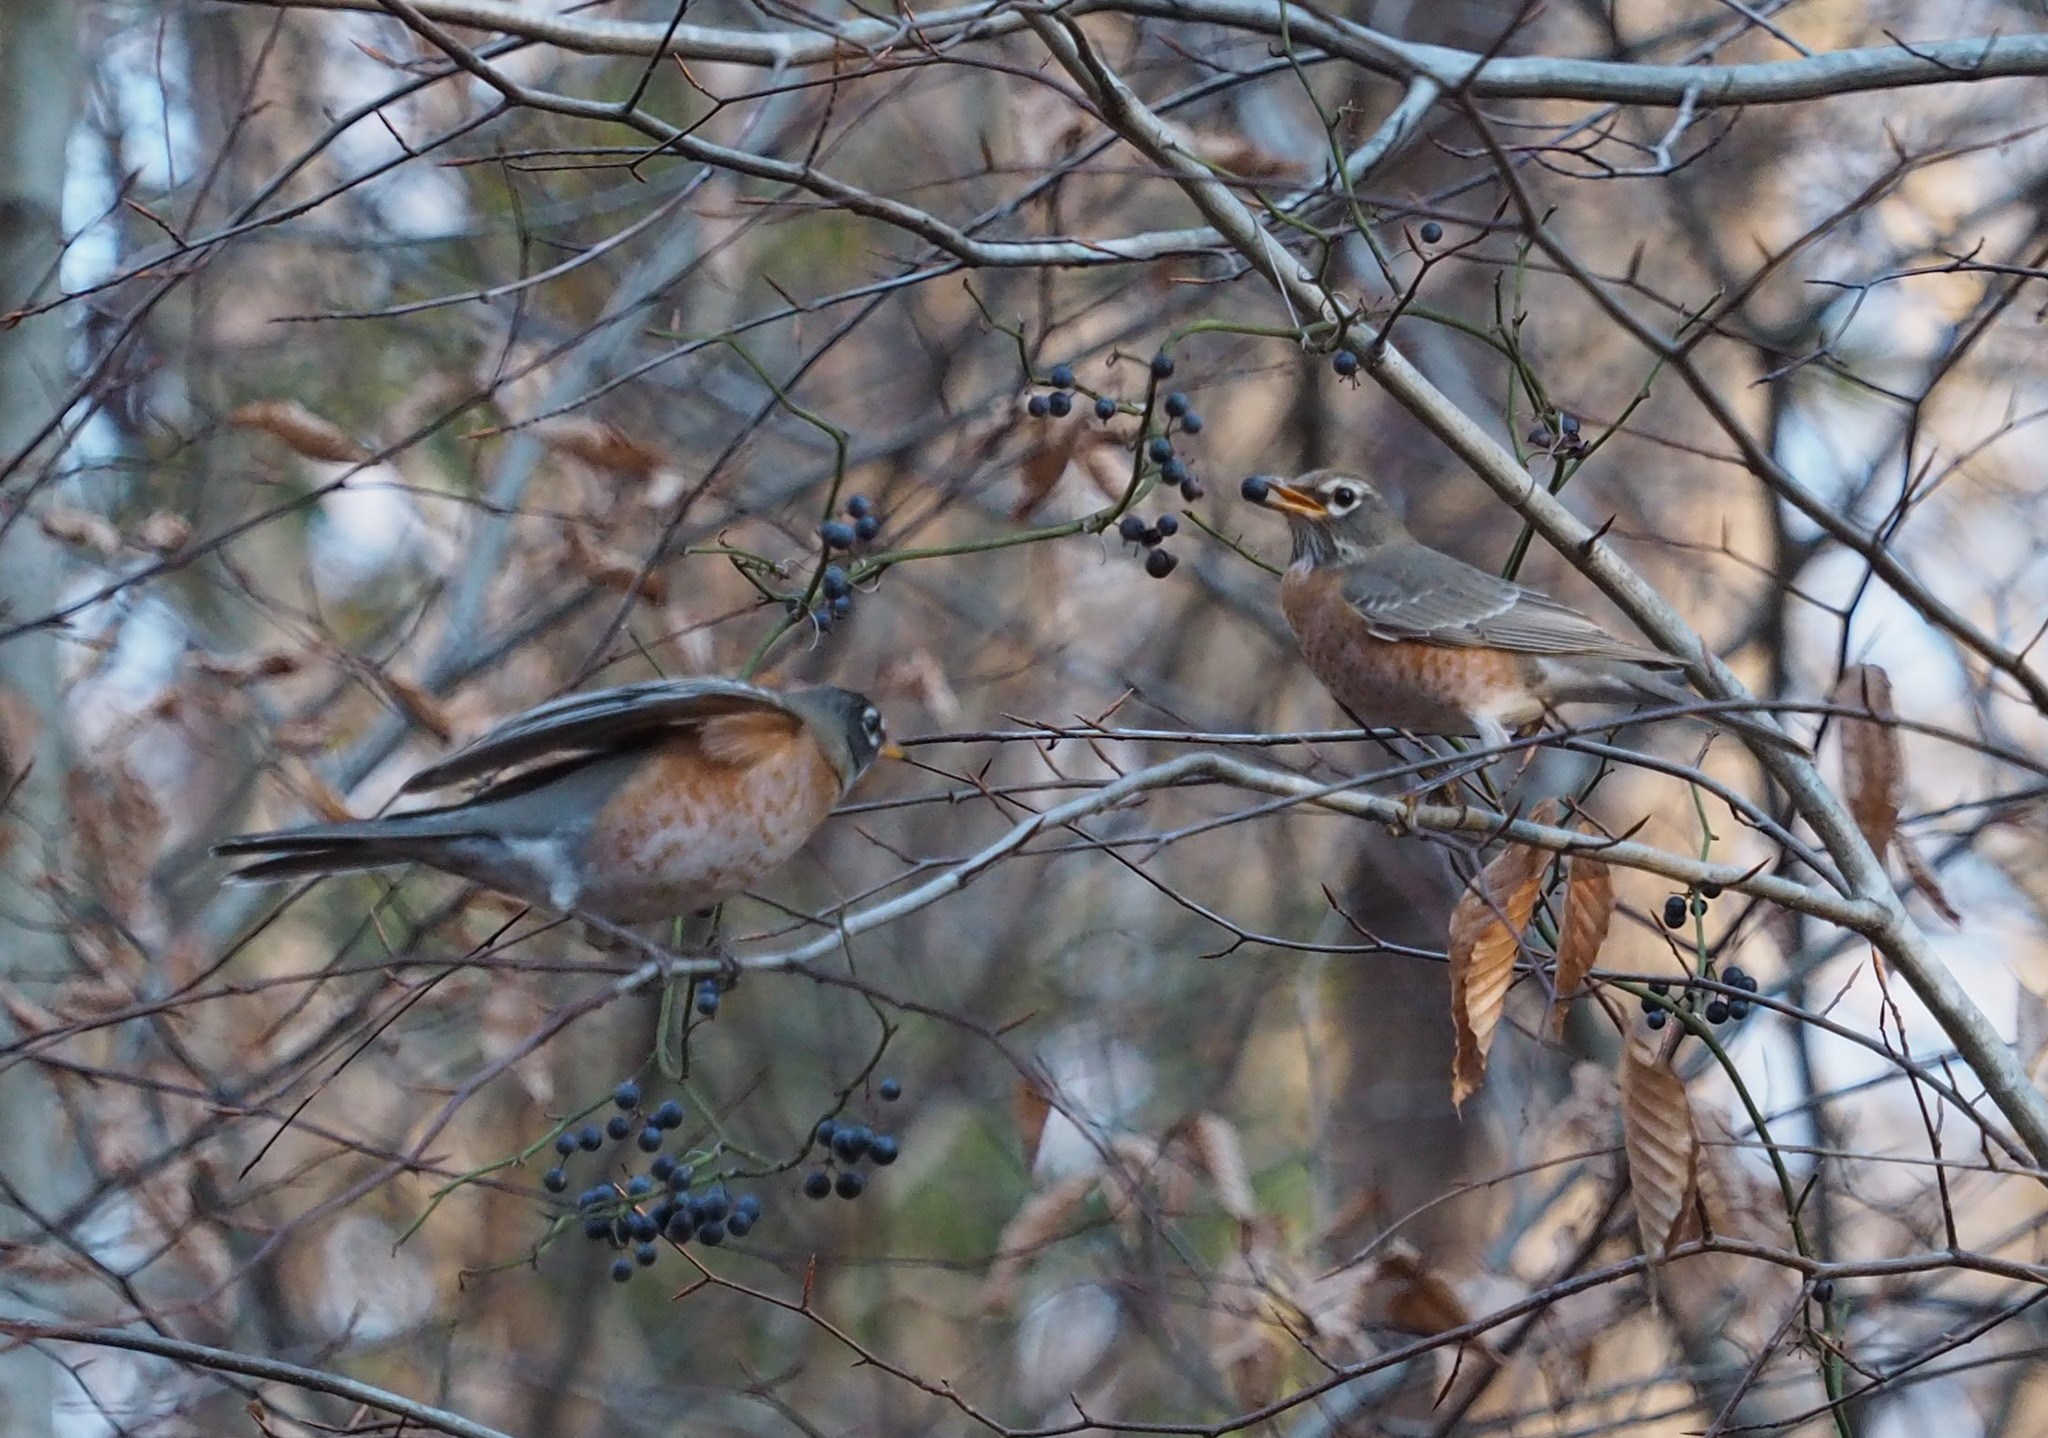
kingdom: Animalia
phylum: Chordata
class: Aves
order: Passeriformes
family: Turdidae
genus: Turdus
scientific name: Turdus migratorius
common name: American robin
